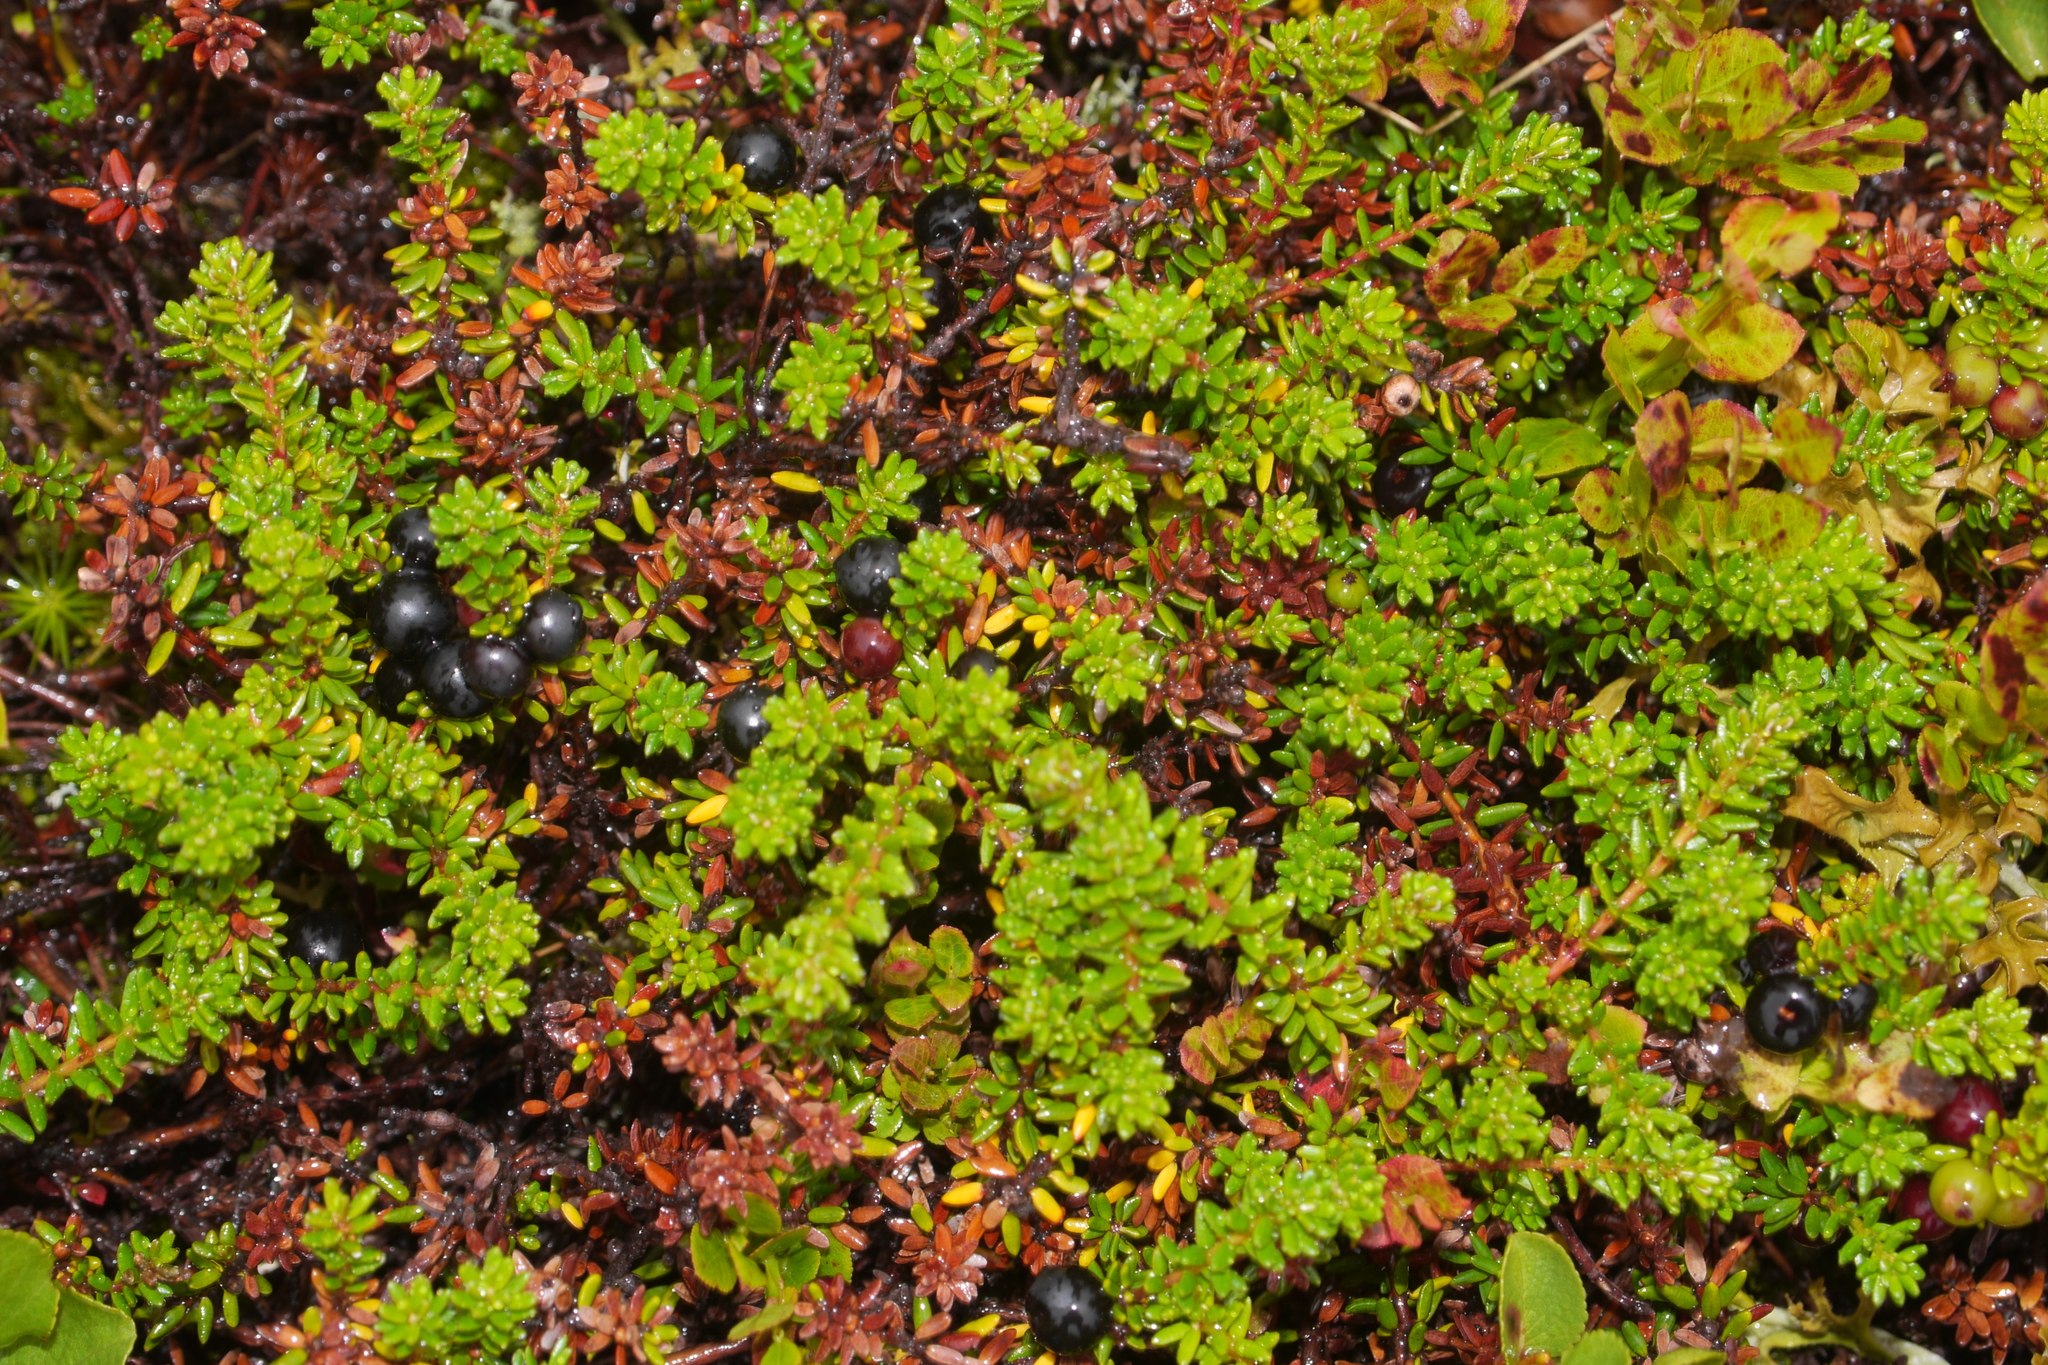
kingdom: Plantae
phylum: Tracheophyta
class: Magnoliopsida
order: Ericales
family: Ericaceae
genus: Empetrum
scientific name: Empetrum nigrum
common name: Black crowberry
